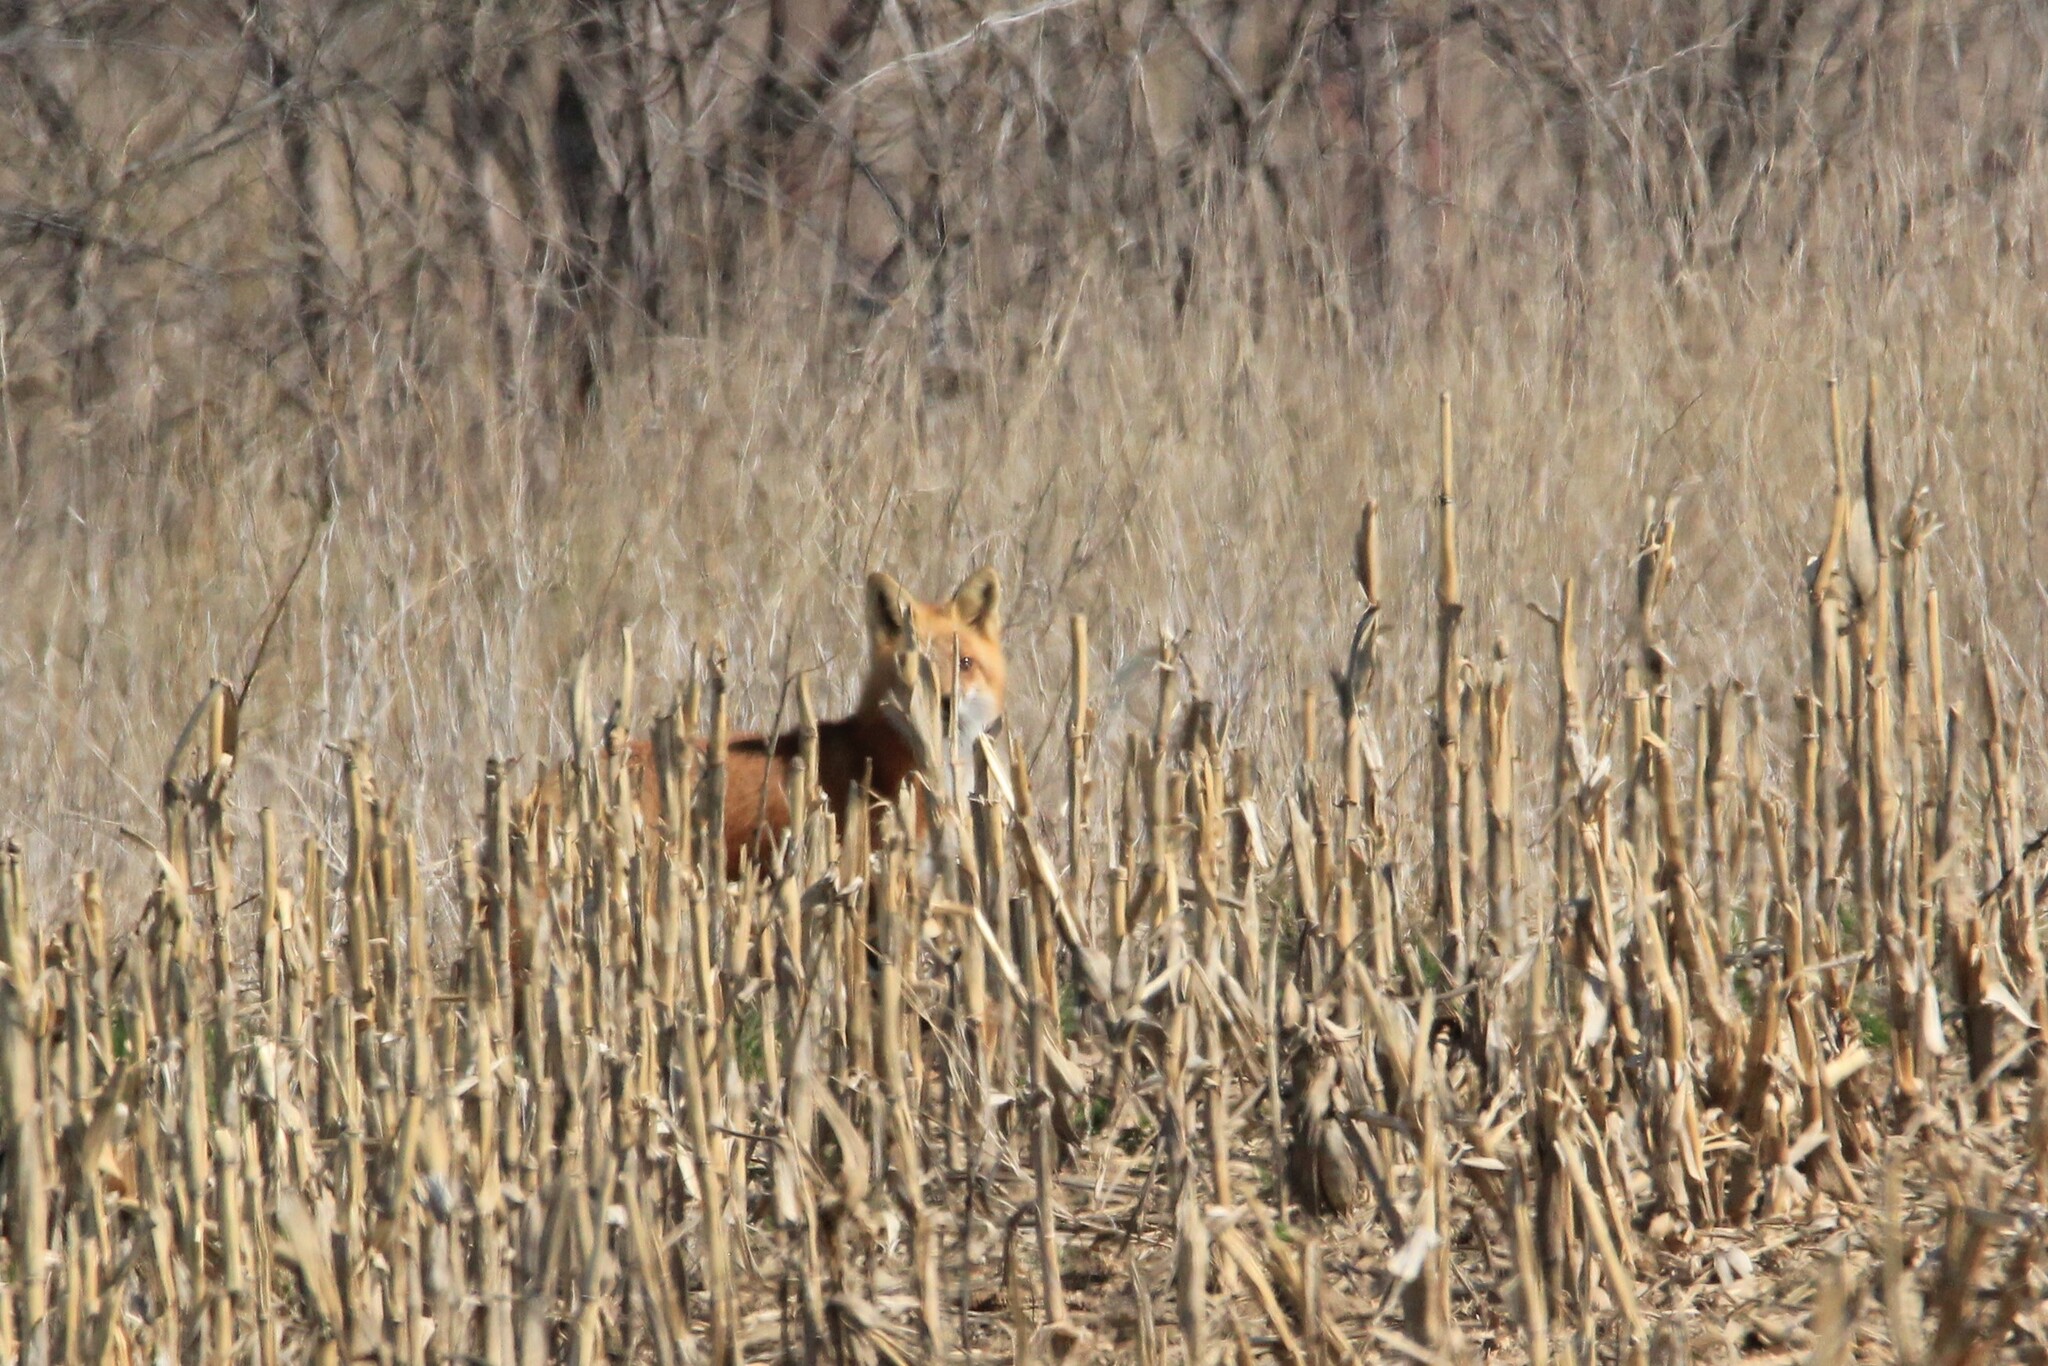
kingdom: Animalia
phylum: Chordata
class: Mammalia
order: Carnivora
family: Canidae
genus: Vulpes
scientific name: Vulpes vulpes
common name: Red fox
